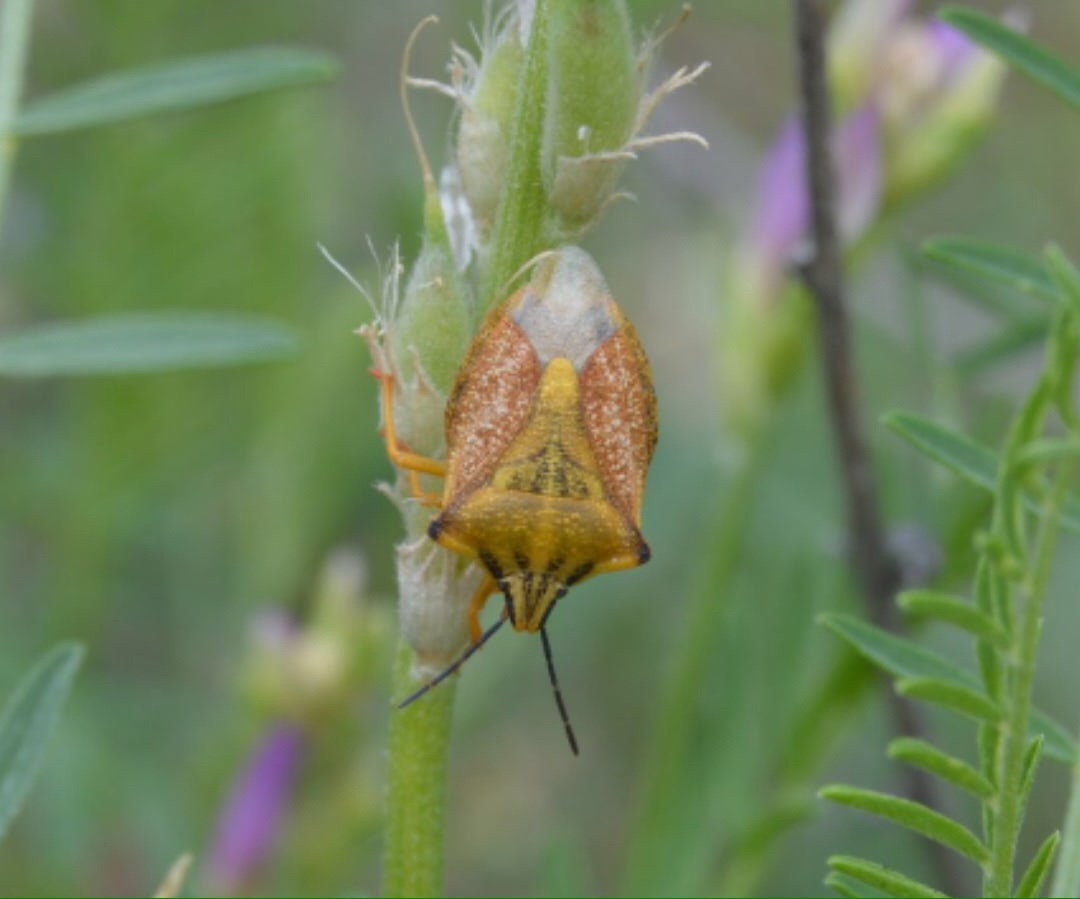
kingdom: Animalia
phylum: Arthropoda
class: Insecta
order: Hemiptera
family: Pentatomidae
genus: Carpocoris
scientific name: Carpocoris fuscispinus
